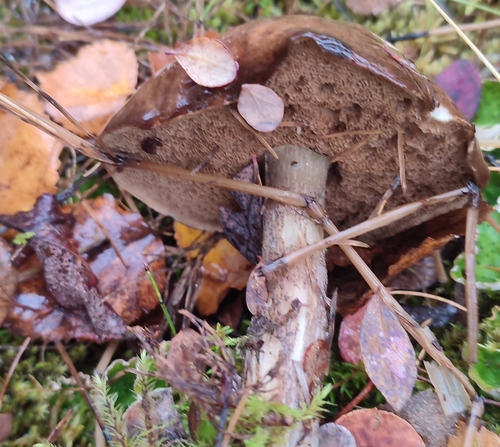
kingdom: Fungi
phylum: Basidiomycota
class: Agaricomycetes
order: Boletales
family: Boletaceae
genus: Leccinum
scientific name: Leccinum
